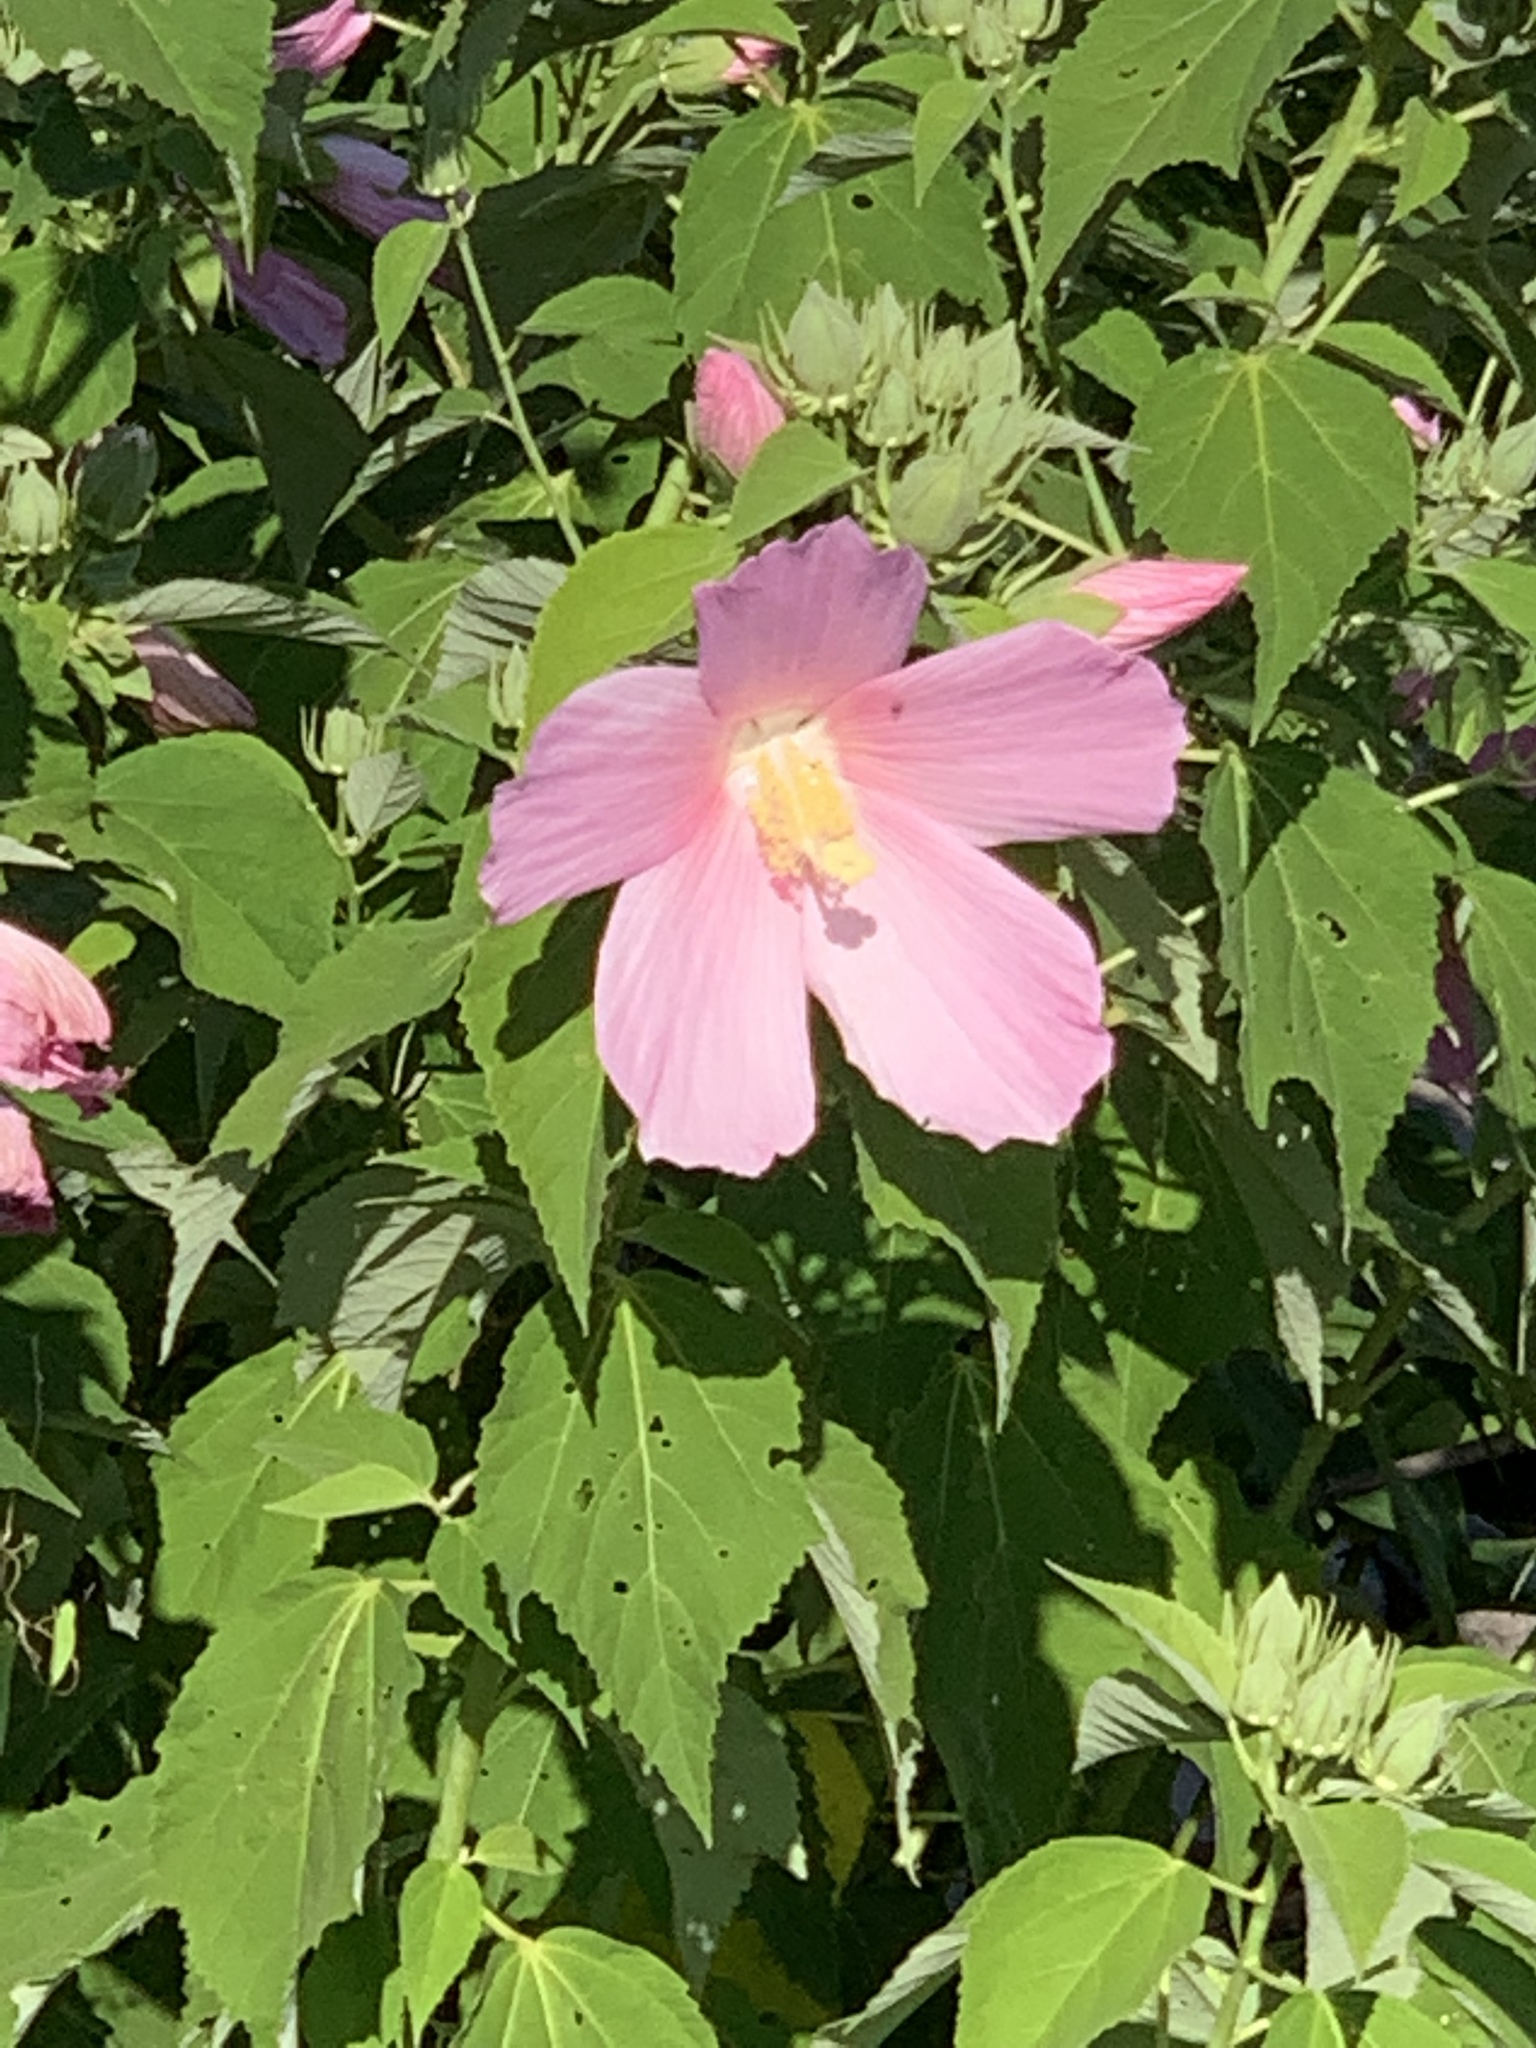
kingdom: Plantae
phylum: Tracheophyta
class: Magnoliopsida
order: Malvales
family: Malvaceae
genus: Hibiscus
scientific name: Hibiscus moscheutos
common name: Common rose-mallow
